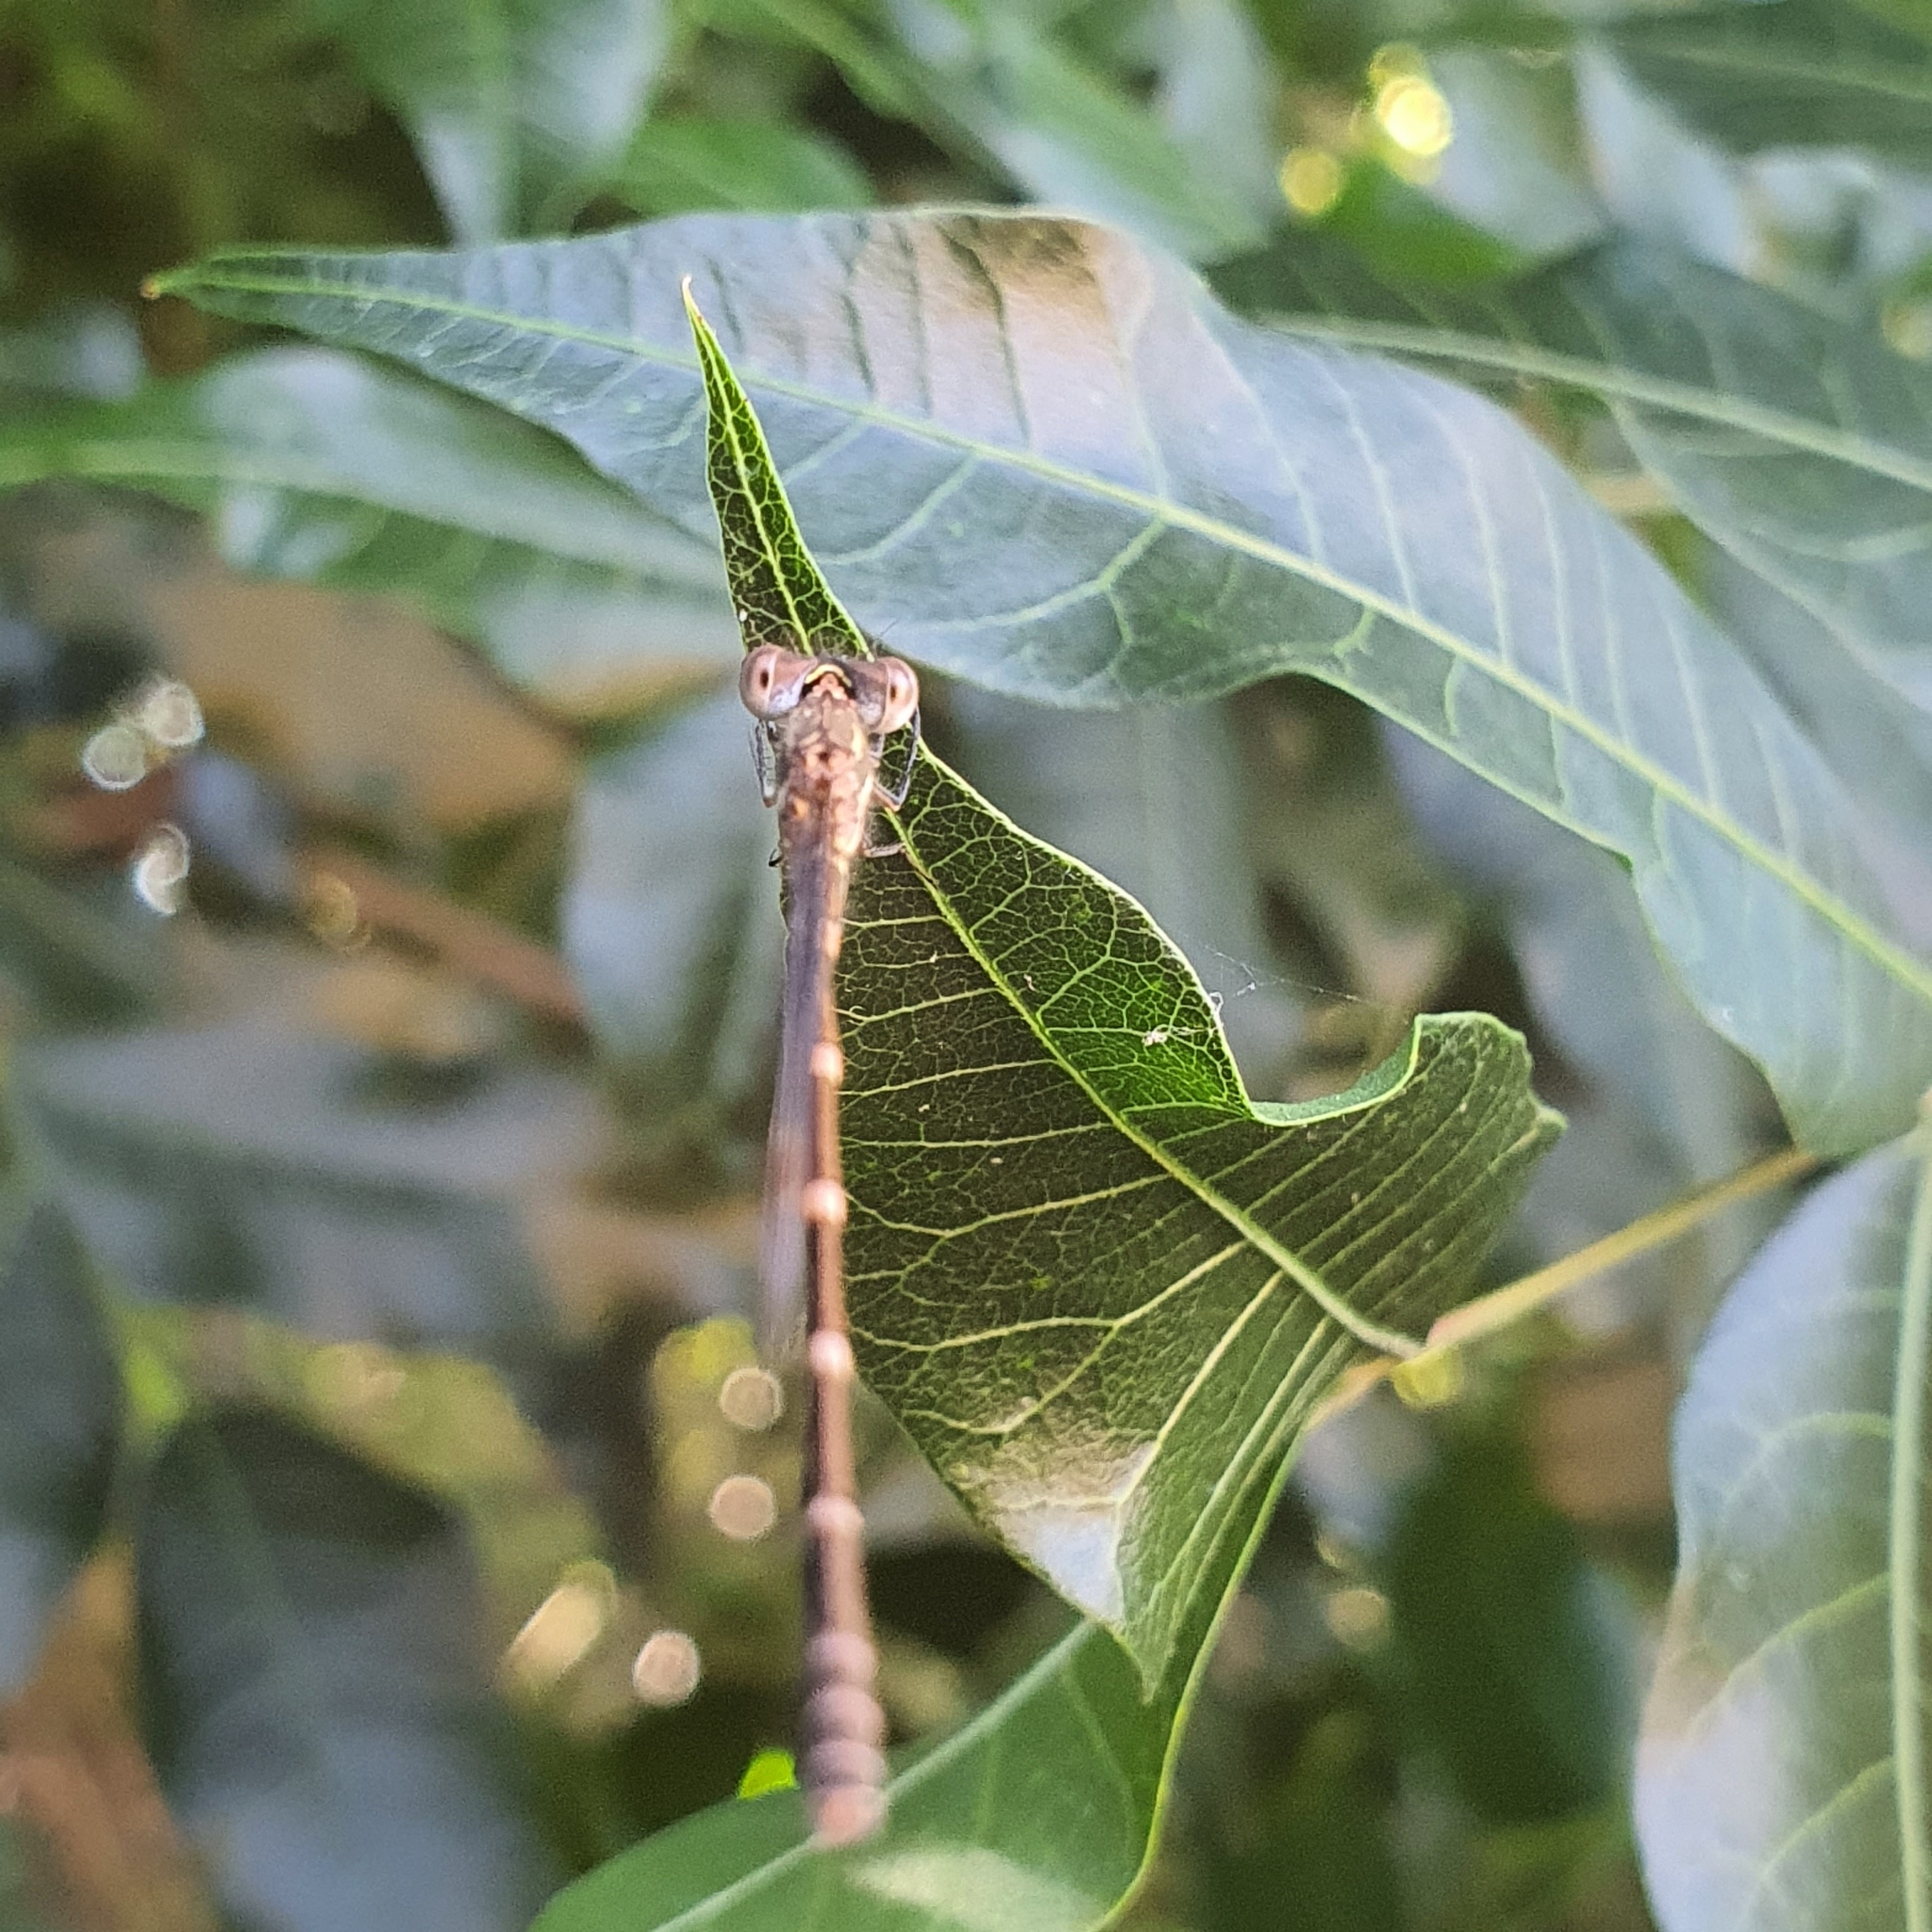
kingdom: Animalia
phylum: Arthropoda
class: Insecta
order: Odonata
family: Lestidae
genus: Austrolestes
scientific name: Austrolestes leda
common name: Wandering ringtail
